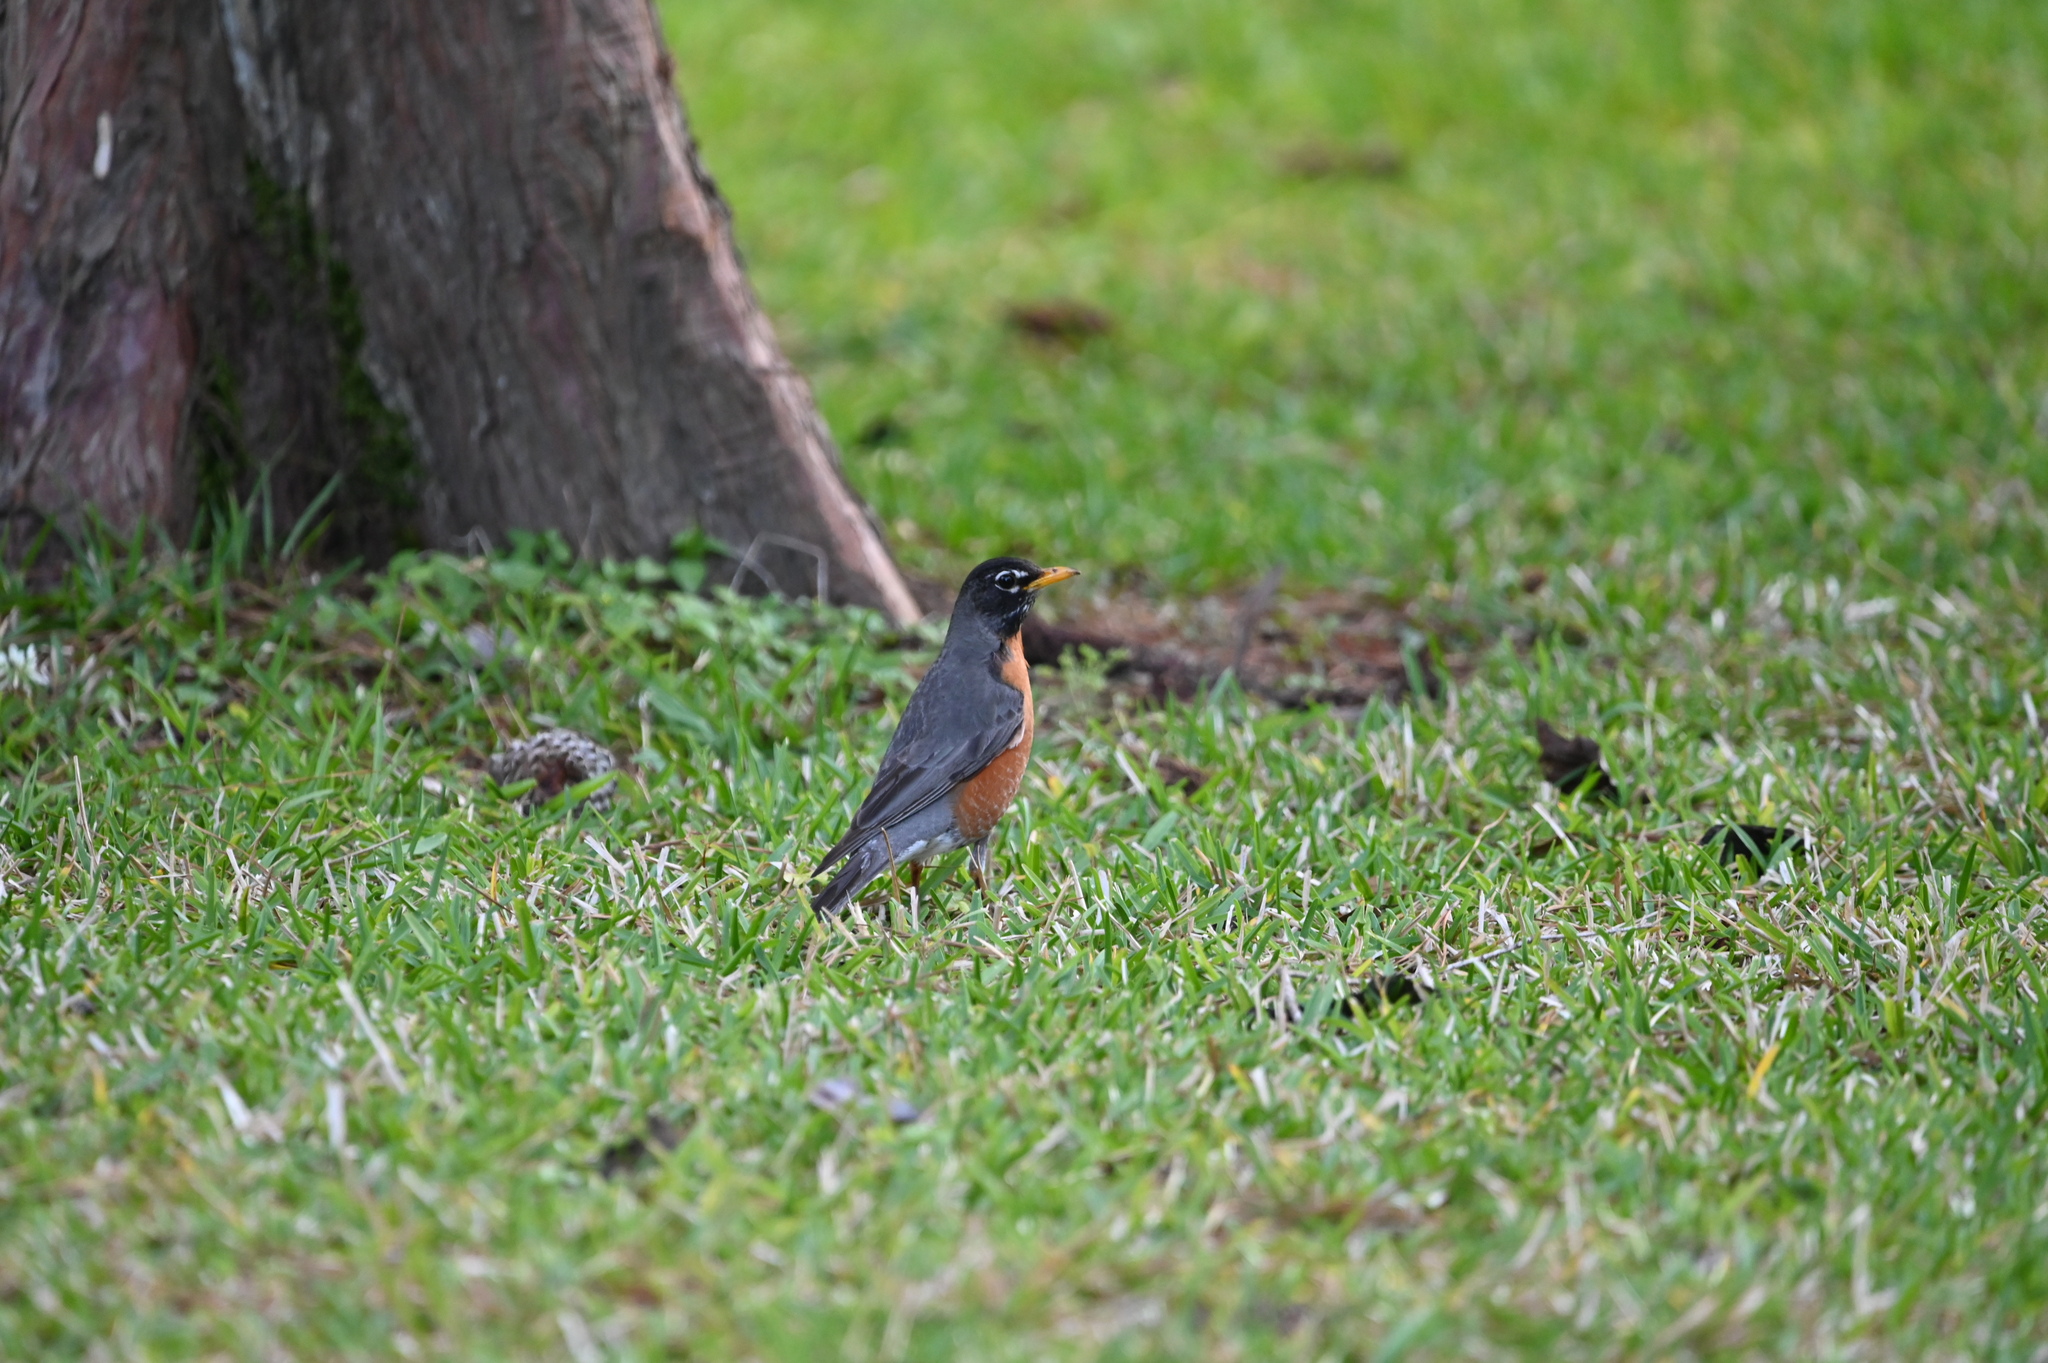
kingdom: Animalia
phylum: Chordata
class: Aves
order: Passeriformes
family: Turdidae
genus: Turdus
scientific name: Turdus migratorius
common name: American robin
